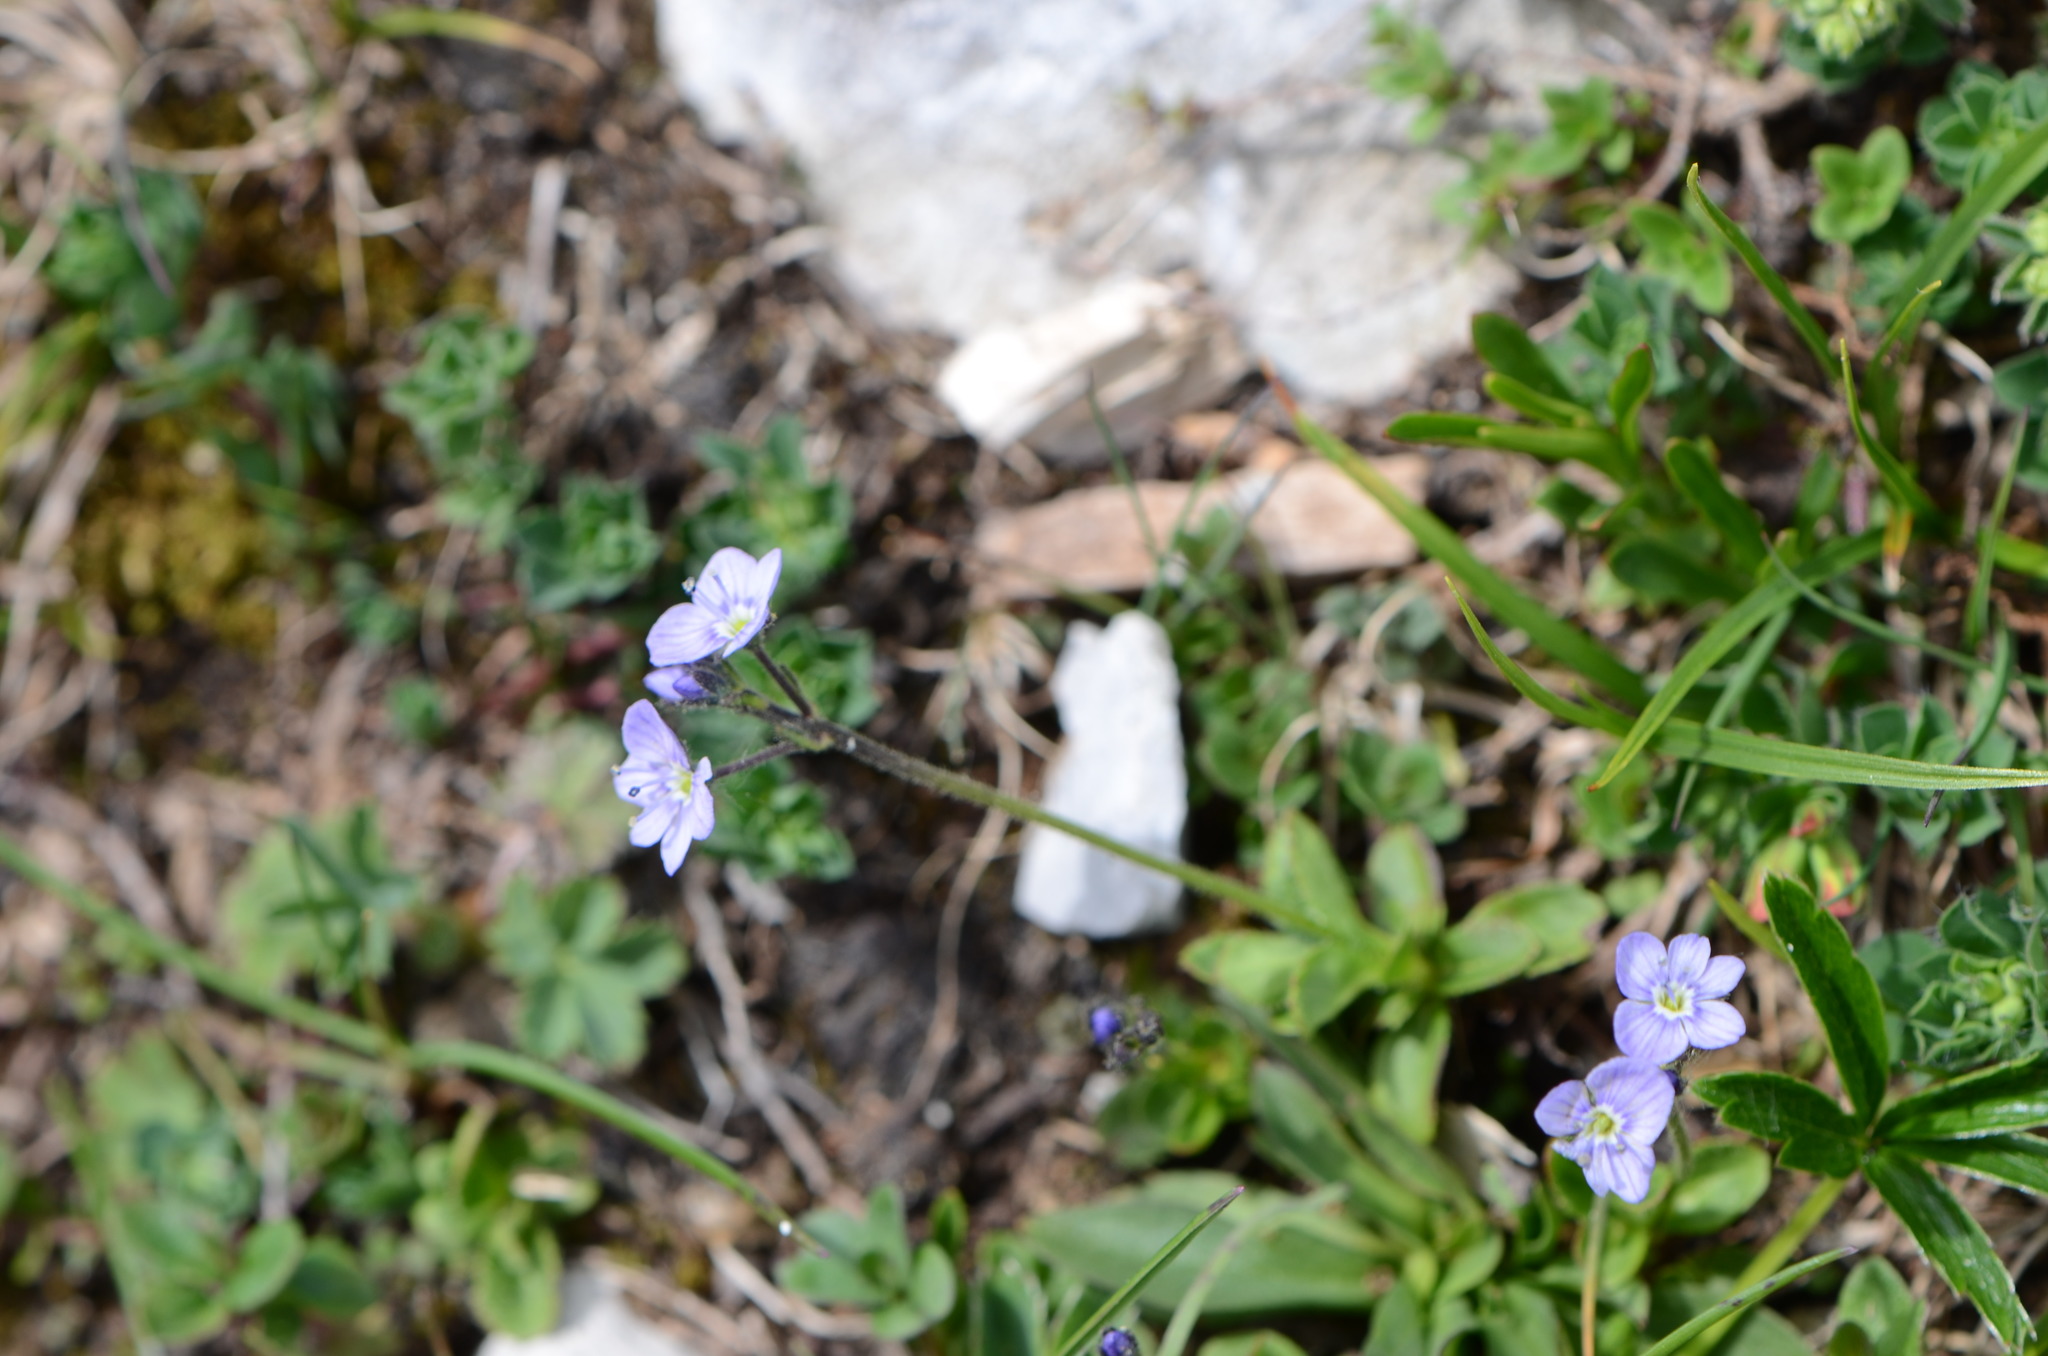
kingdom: Plantae
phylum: Tracheophyta
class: Magnoliopsida
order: Lamiales
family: Plantaginaceae
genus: Veronica
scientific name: Veronica aphylla
